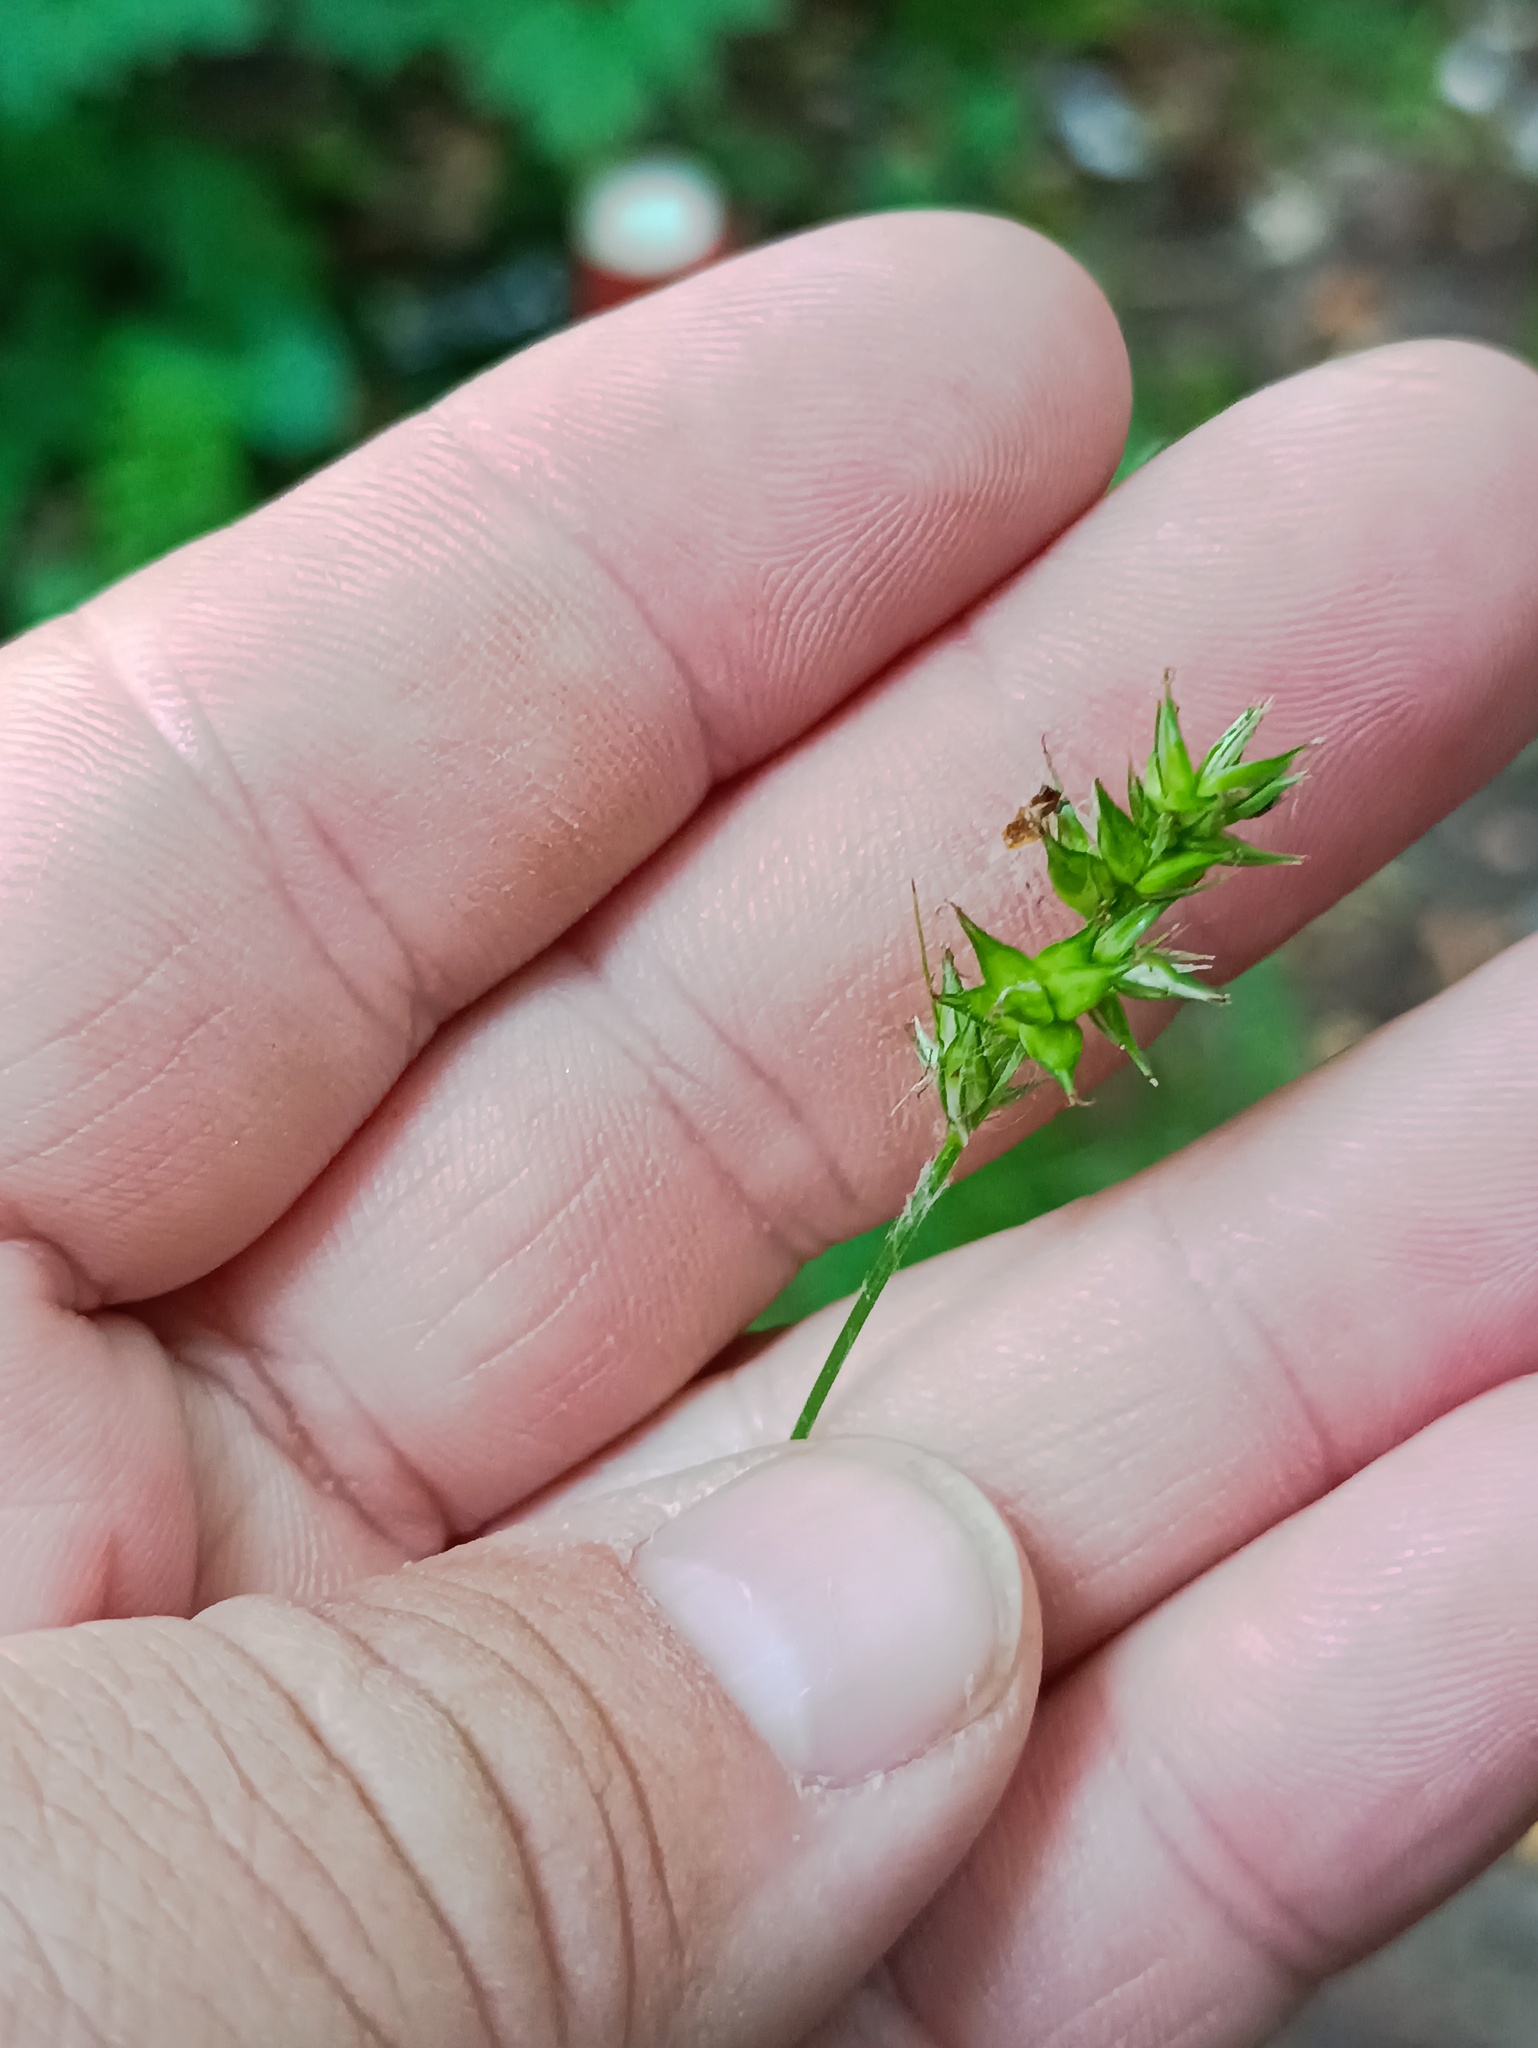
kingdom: Plantae
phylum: Tracheophyta
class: Liliopsida
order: Poales
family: Cyperaceae
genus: Carex
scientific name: Carex spicata
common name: Spiked sedge
